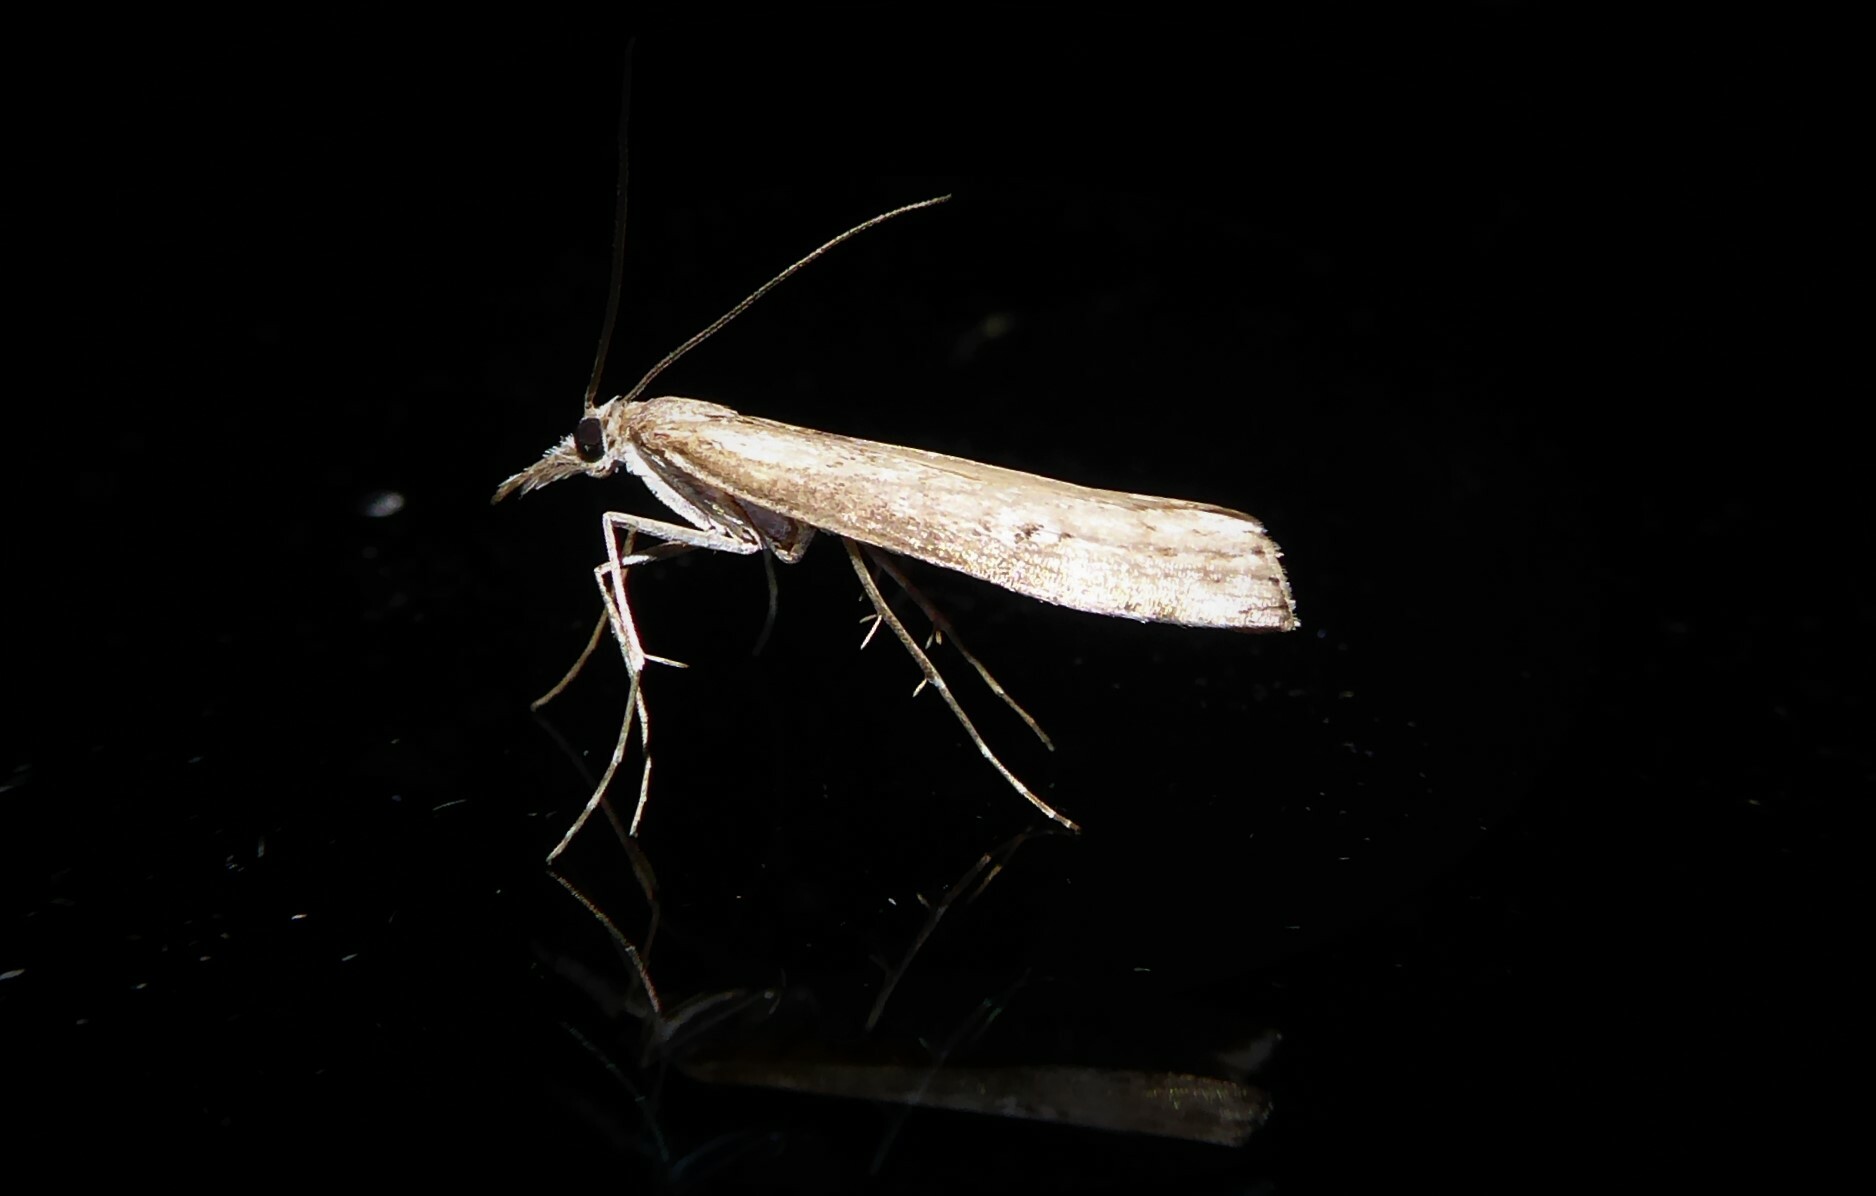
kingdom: Animalia
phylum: Arthropoda
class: Insecta
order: Lepidoptera
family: Crambidae
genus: Orocrambus
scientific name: Orocrambus cyclopicus
